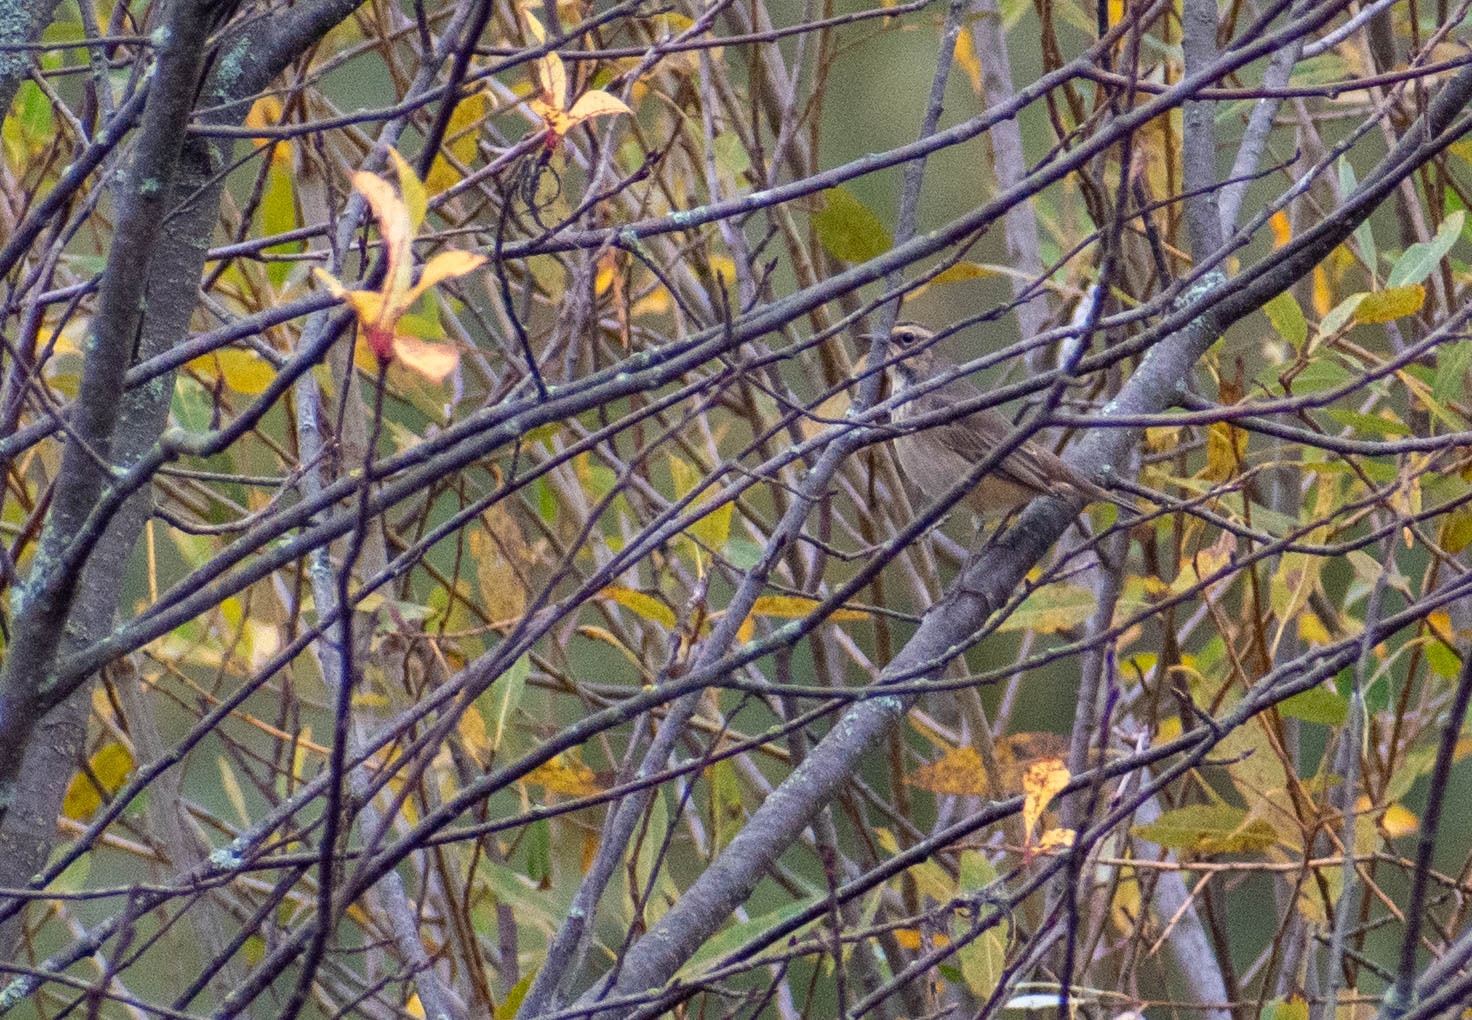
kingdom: Animalia
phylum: Chordata
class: Aves
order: Passeriformes
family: Muscicapidae
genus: Luscinia
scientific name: Luscinia svecica
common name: Bluethroat
